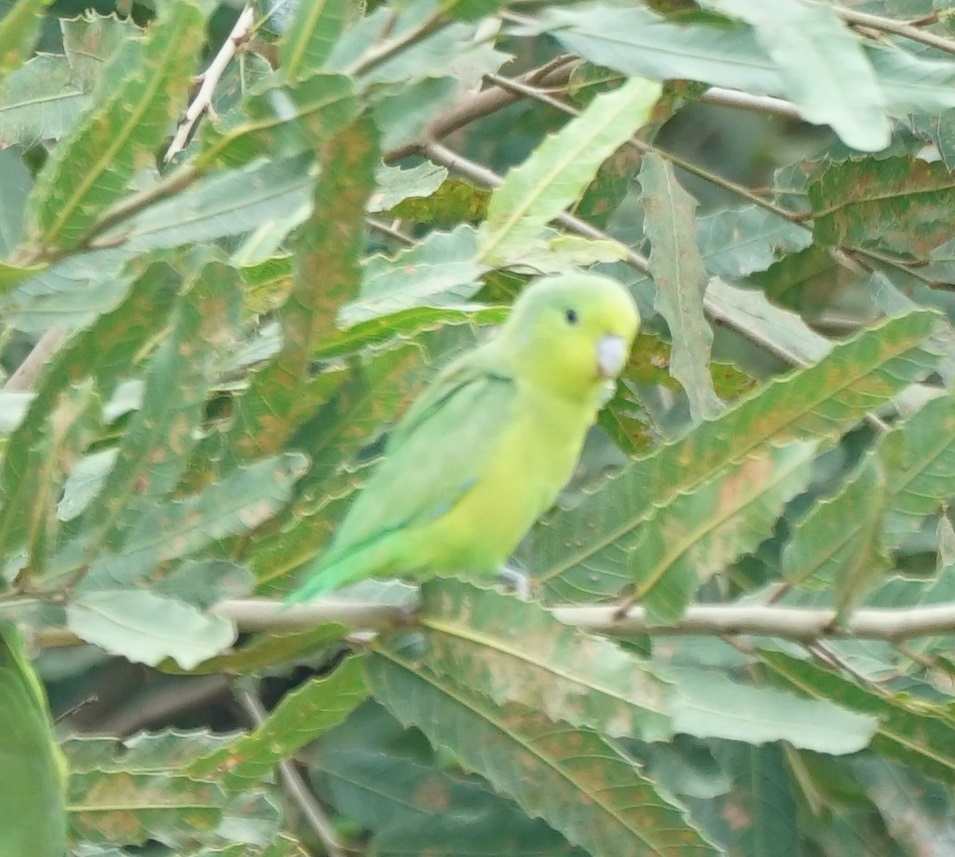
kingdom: Animalia
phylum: Chordata
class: Aves
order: Psittaciformes
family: Psittacidae
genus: Forpus
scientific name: Forpus xanthopterygius
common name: Blue-winged parrotlet
